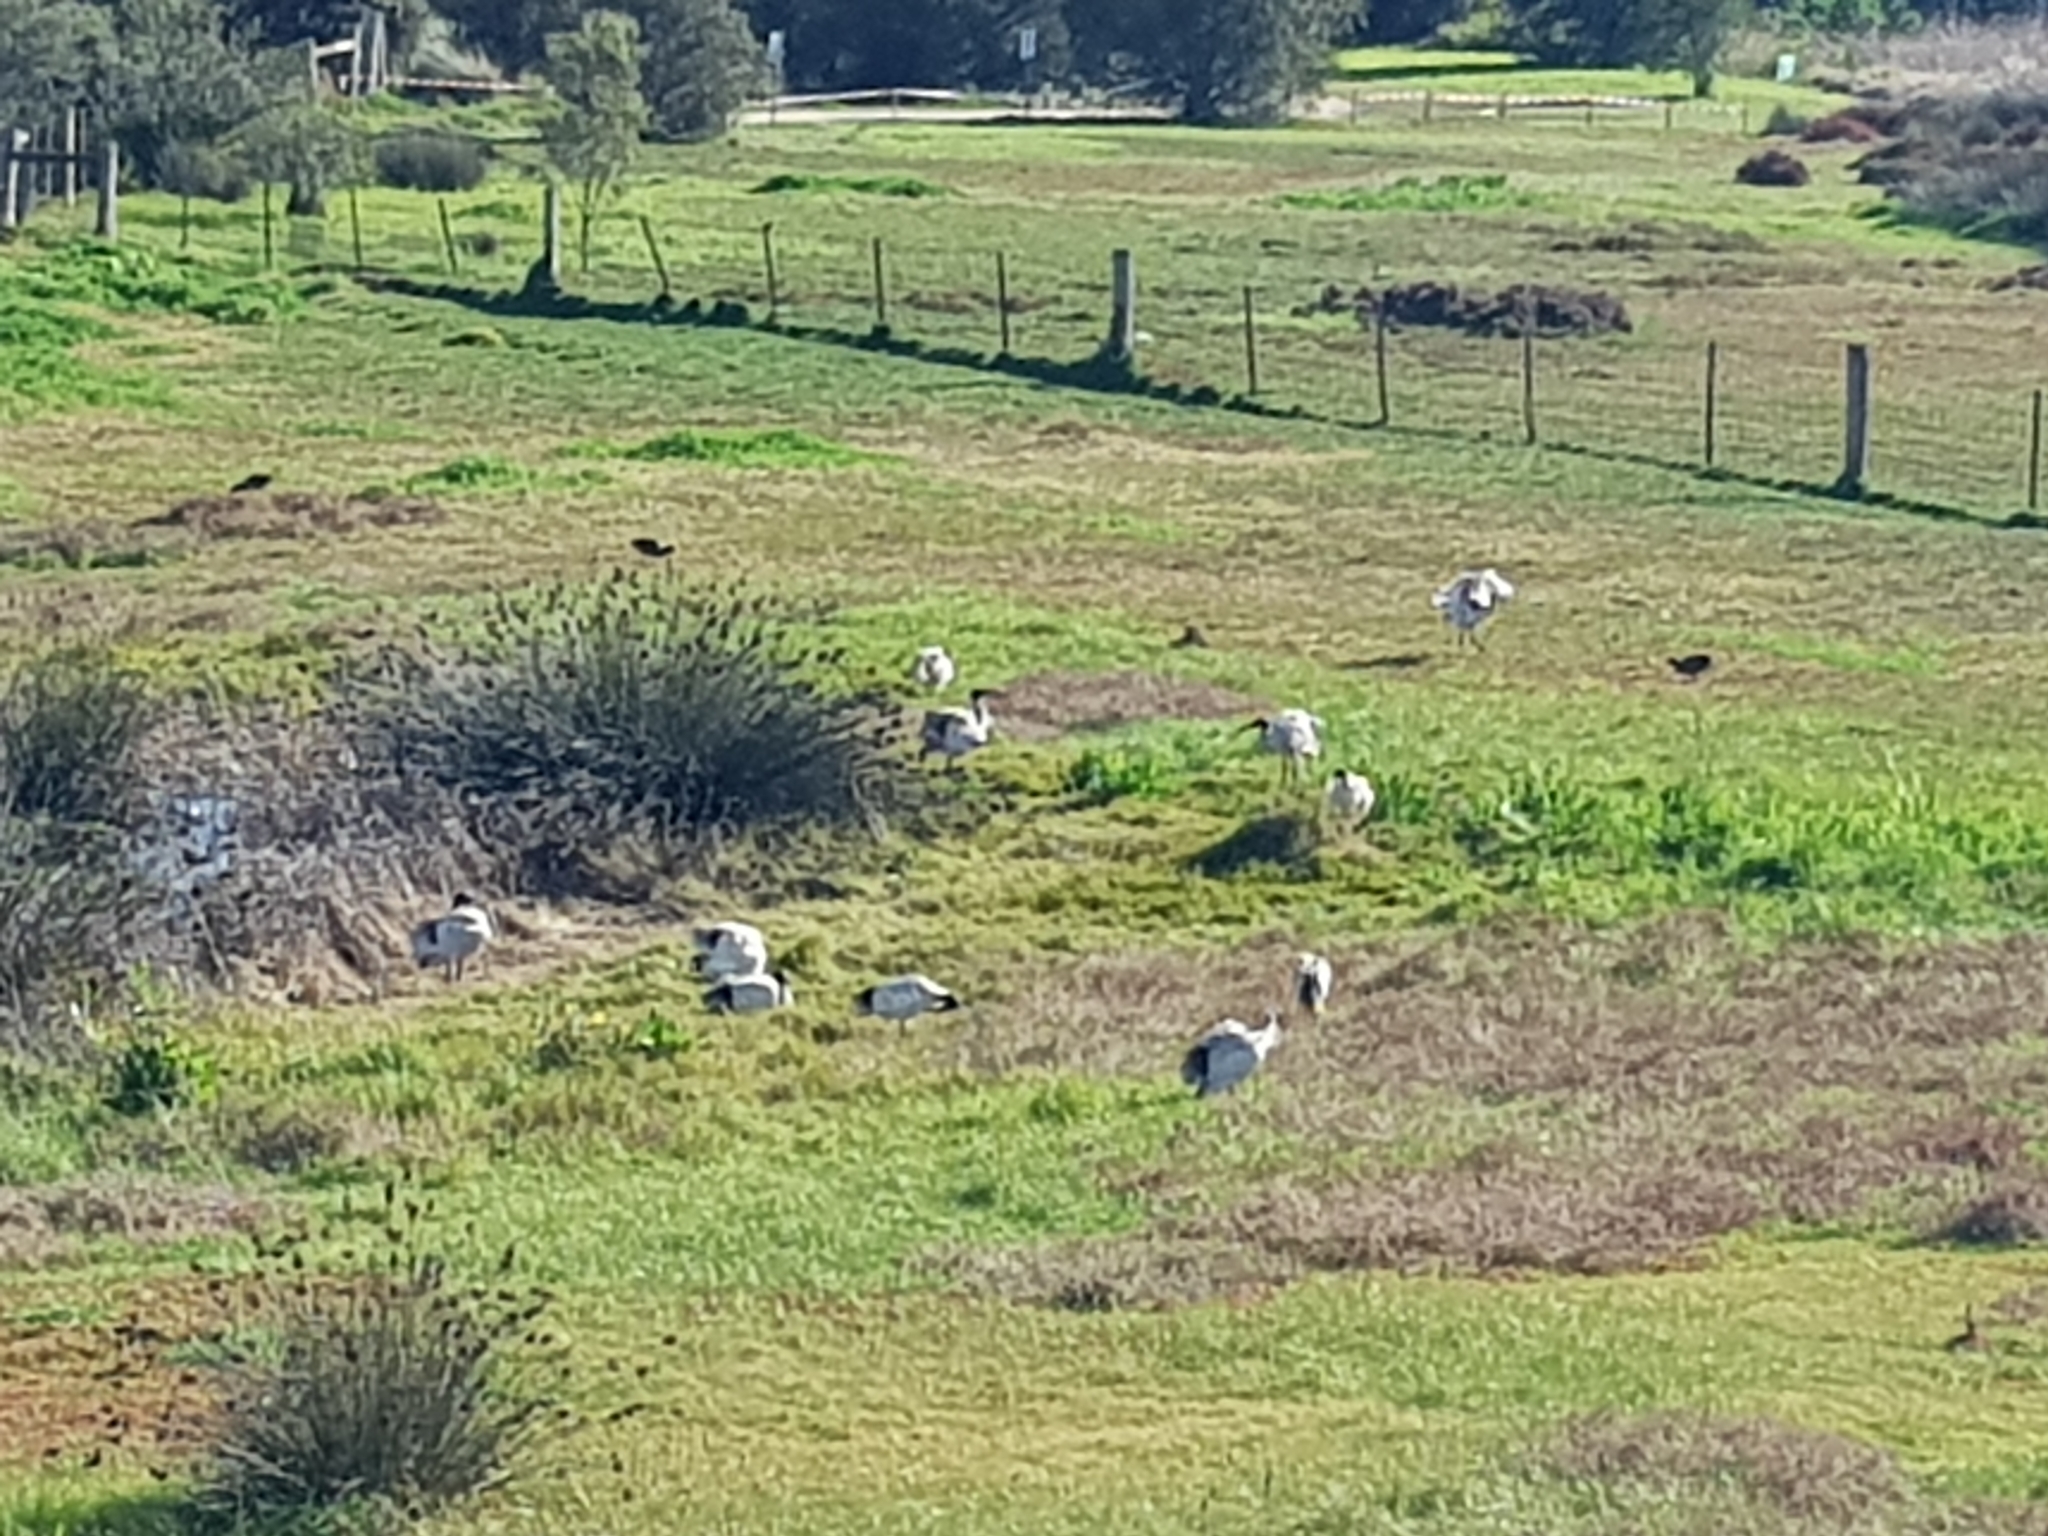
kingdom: Animalia
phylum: Chordata
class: Aves
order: Pelecaniformes
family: Threskiornithidae
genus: Threskiornis
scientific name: Threskiornis molucca
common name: Australian white ibis
